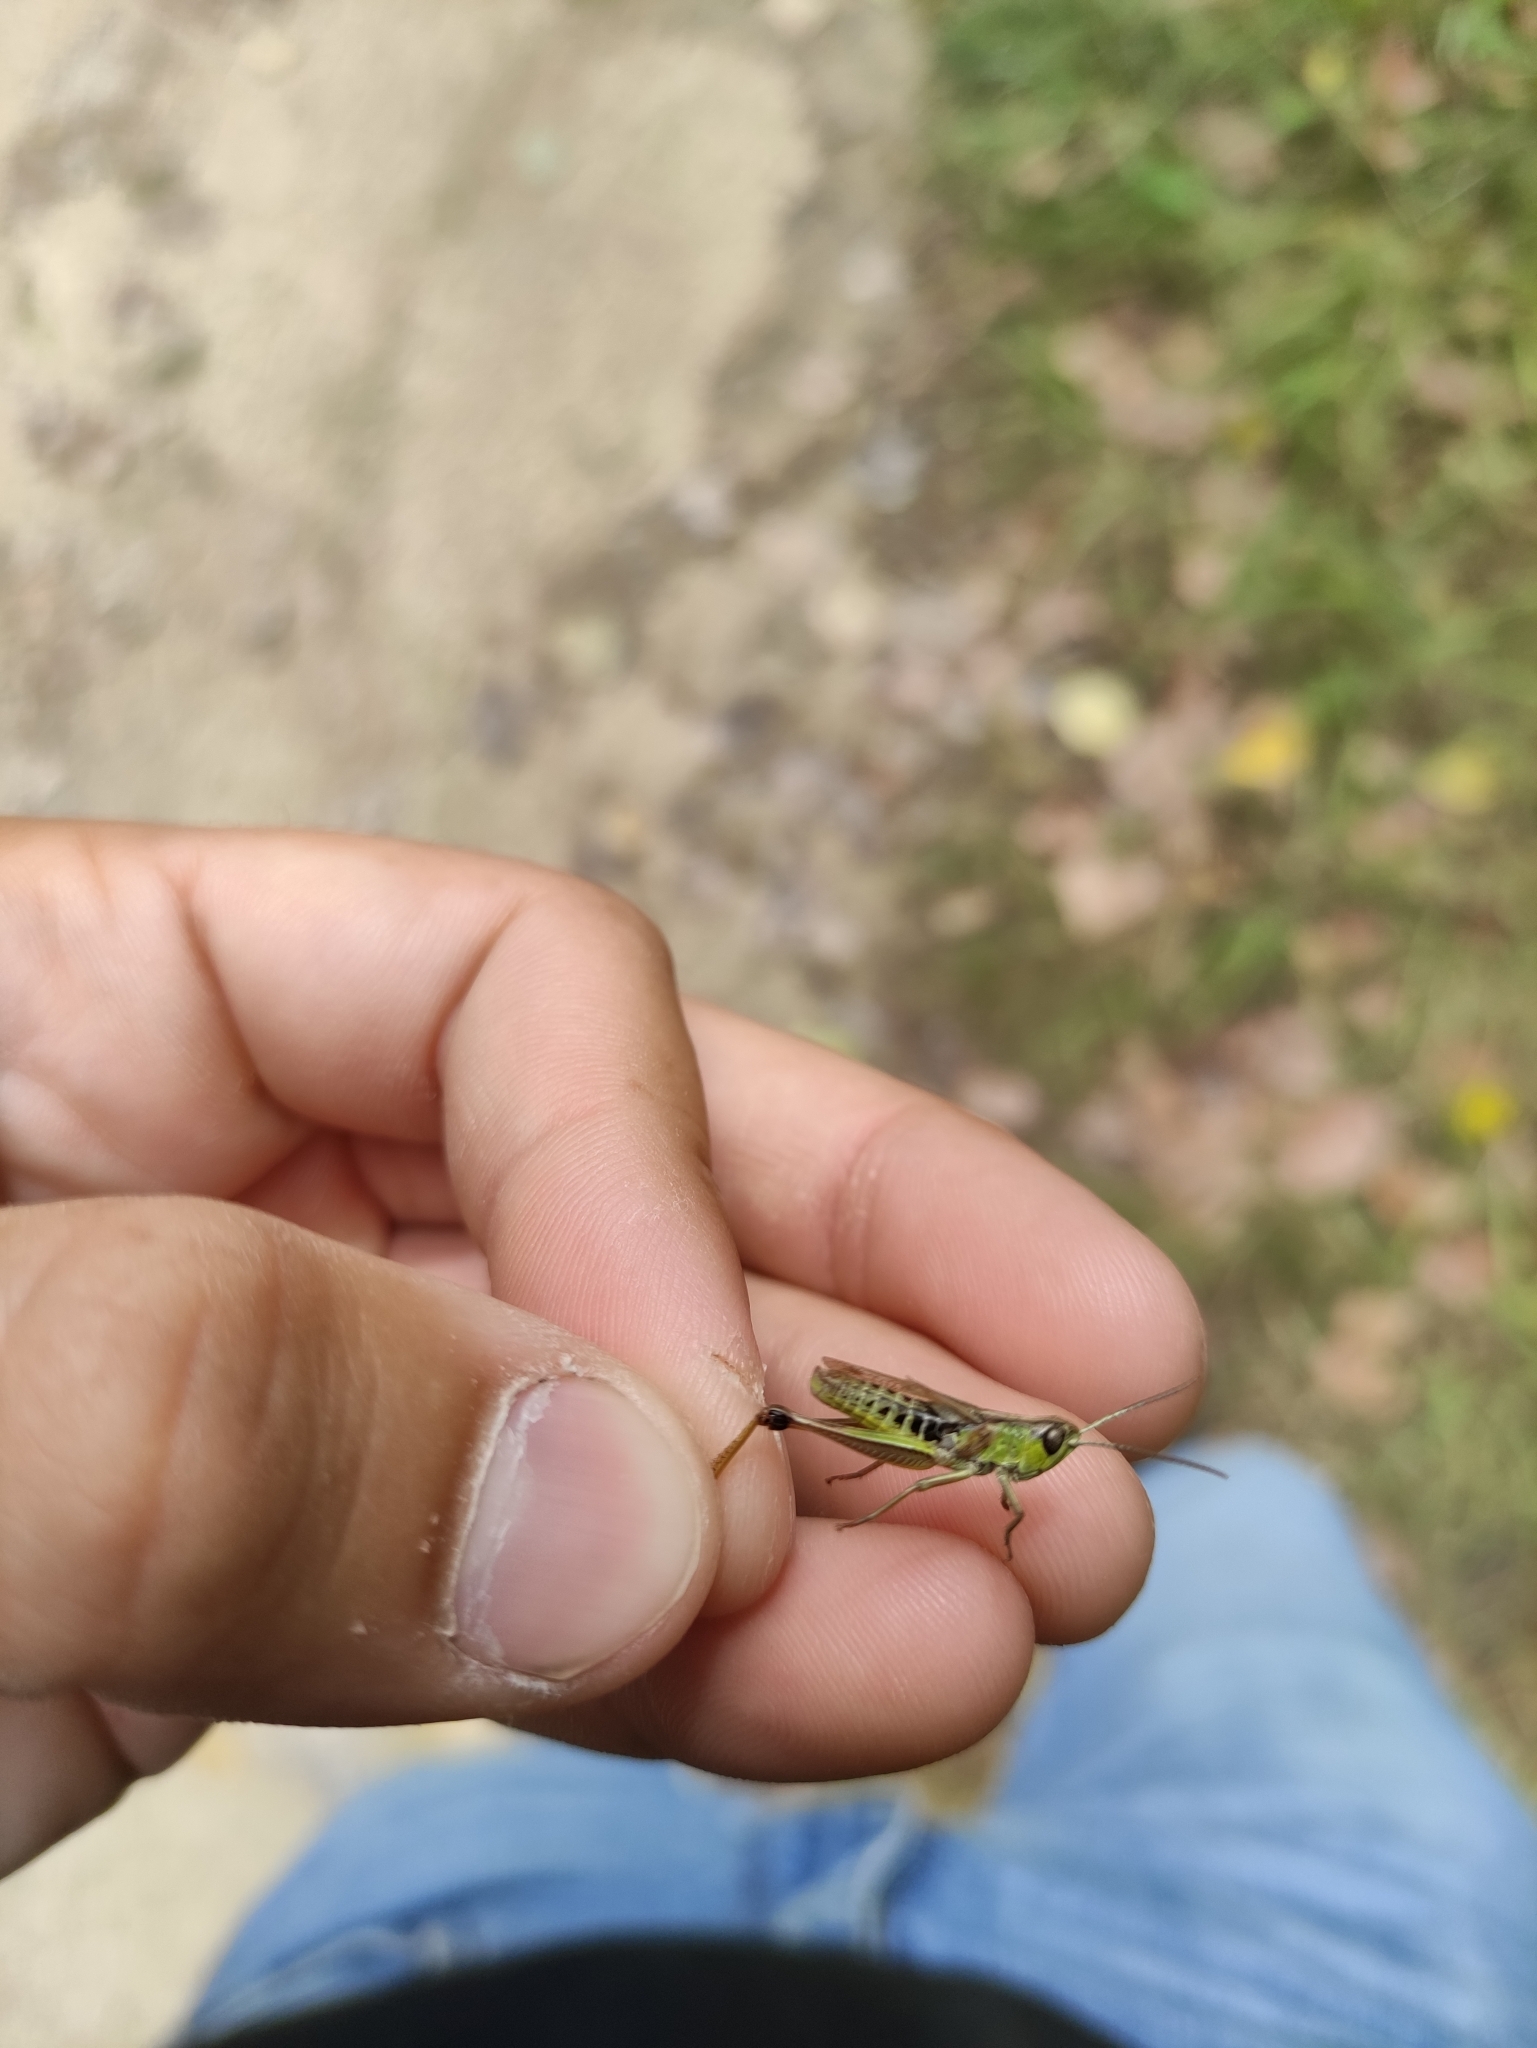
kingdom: Animalia
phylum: Arthropoda
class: Insecta
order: Orthoptera
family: Acrididae
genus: Pseudochorthippus
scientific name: Pseudochorthippus parallelus
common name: Meadow grasshopper
